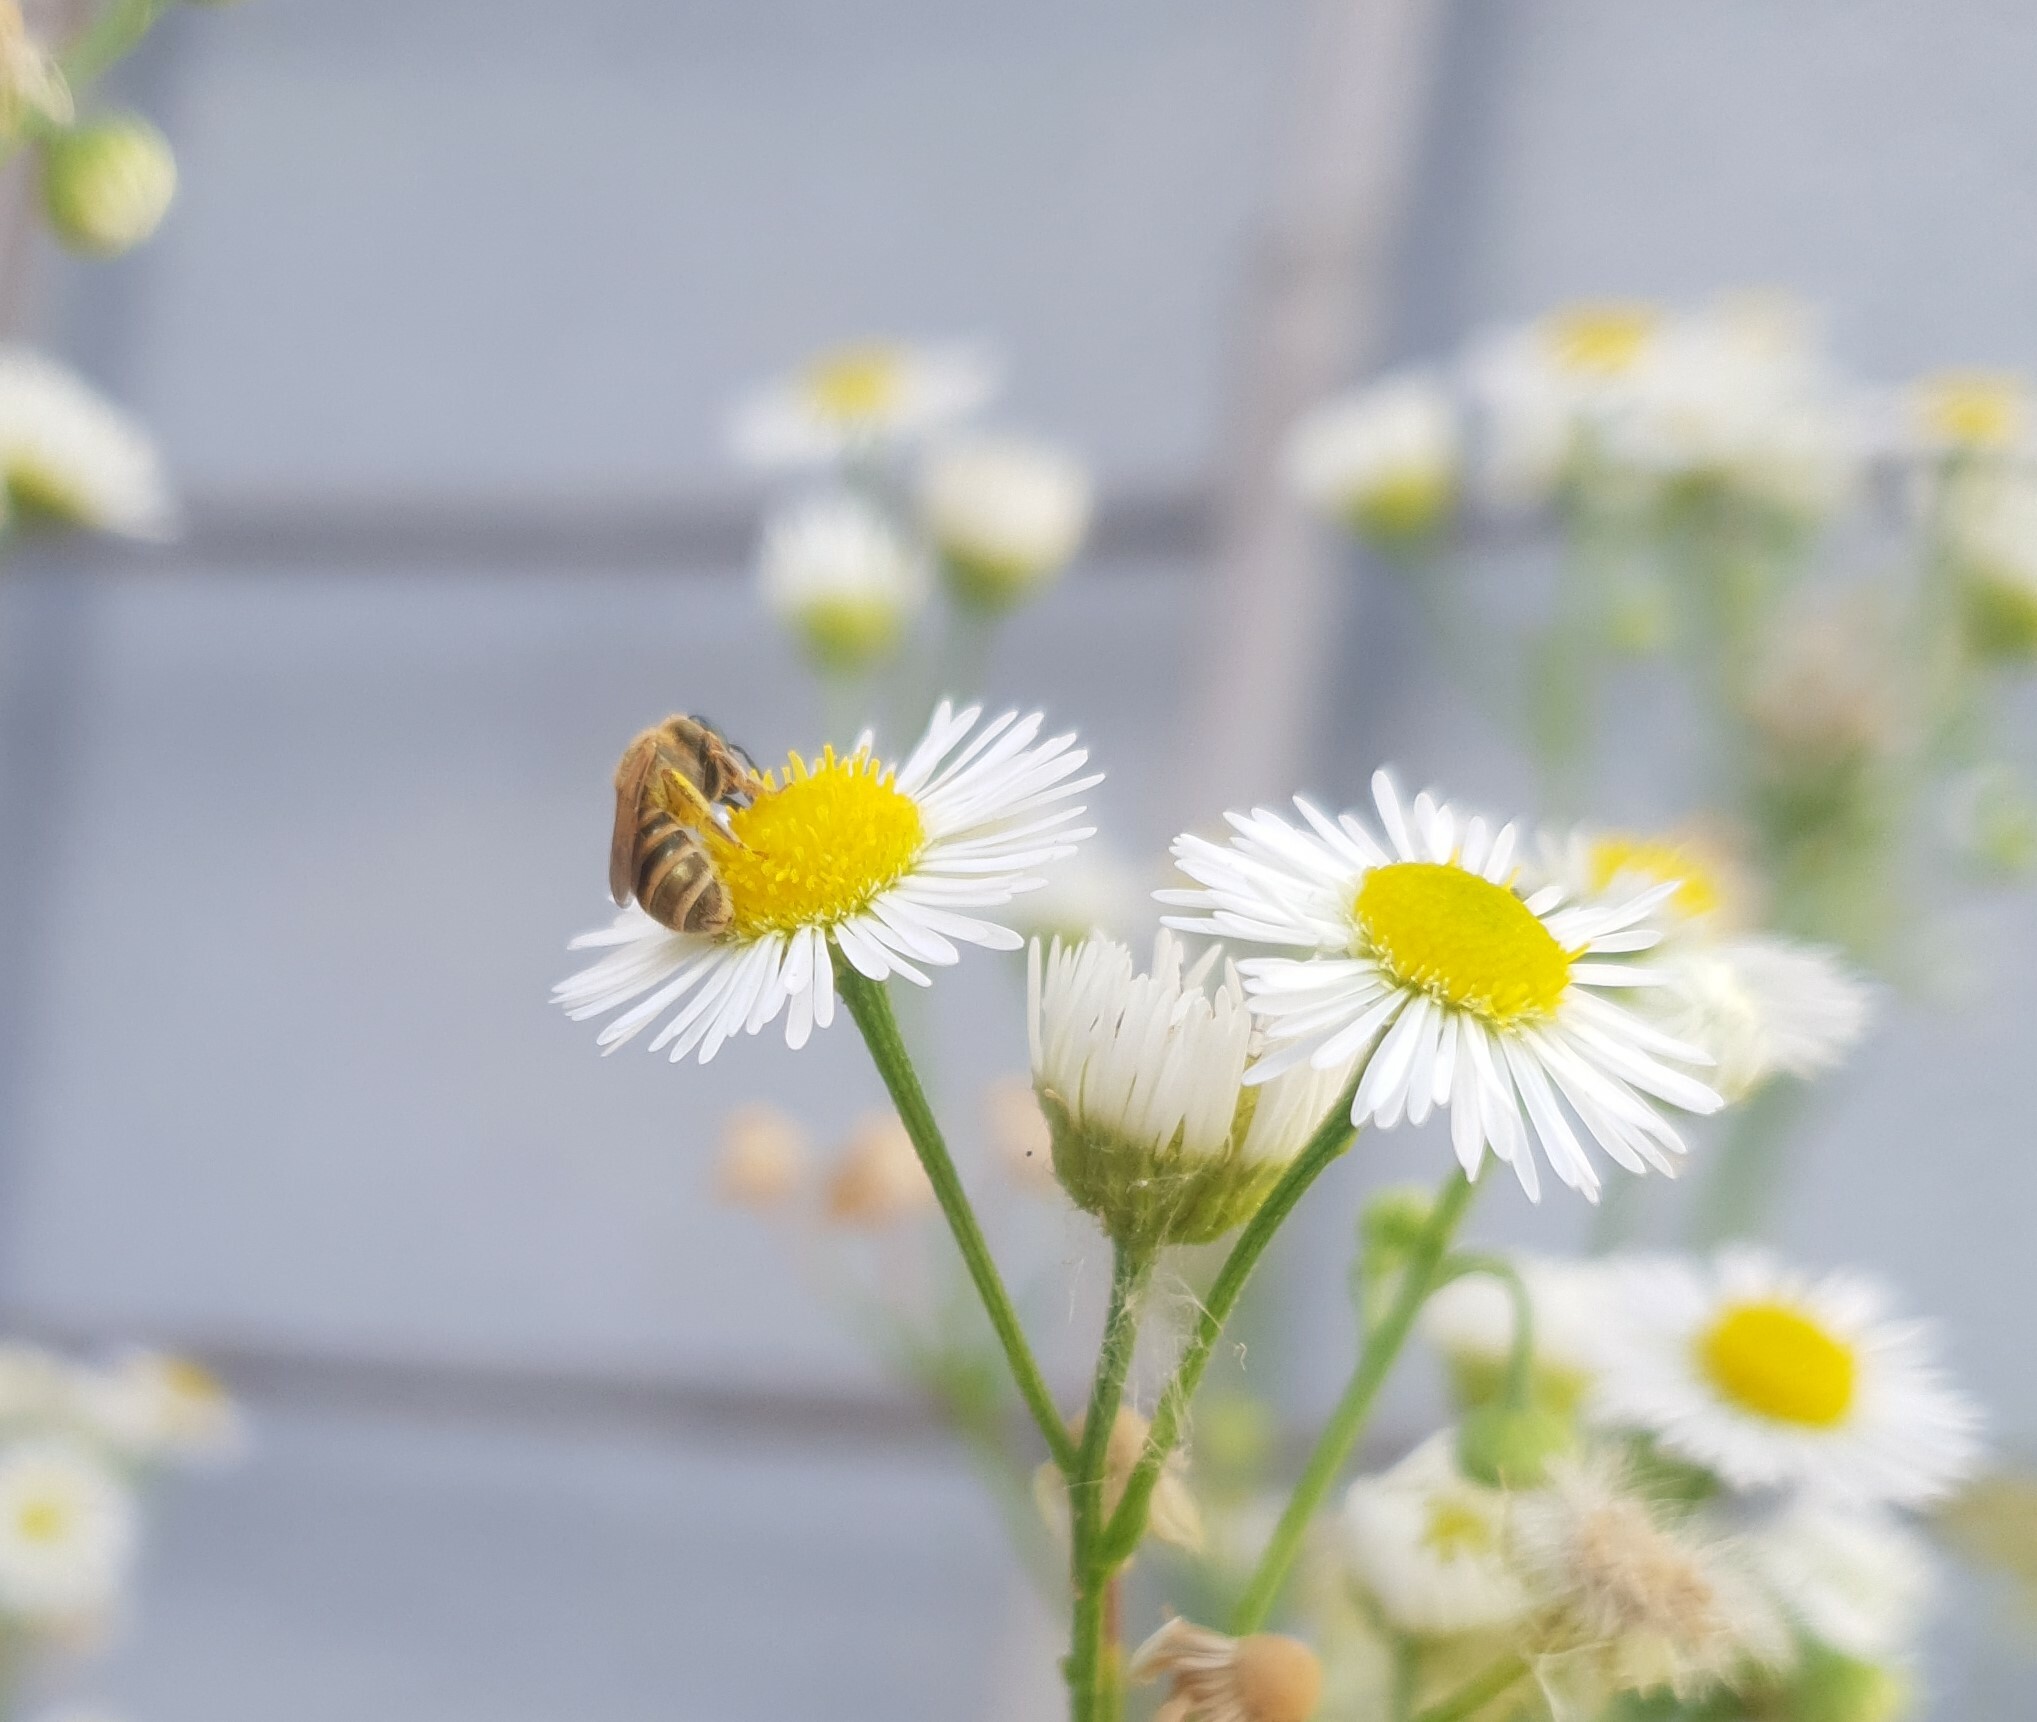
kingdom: Animalia
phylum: Arthropoda
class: Insecta
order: Hymenoptera
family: Halictidae
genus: Halictus
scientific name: Halictus subauratus
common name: Golden furrow bee
